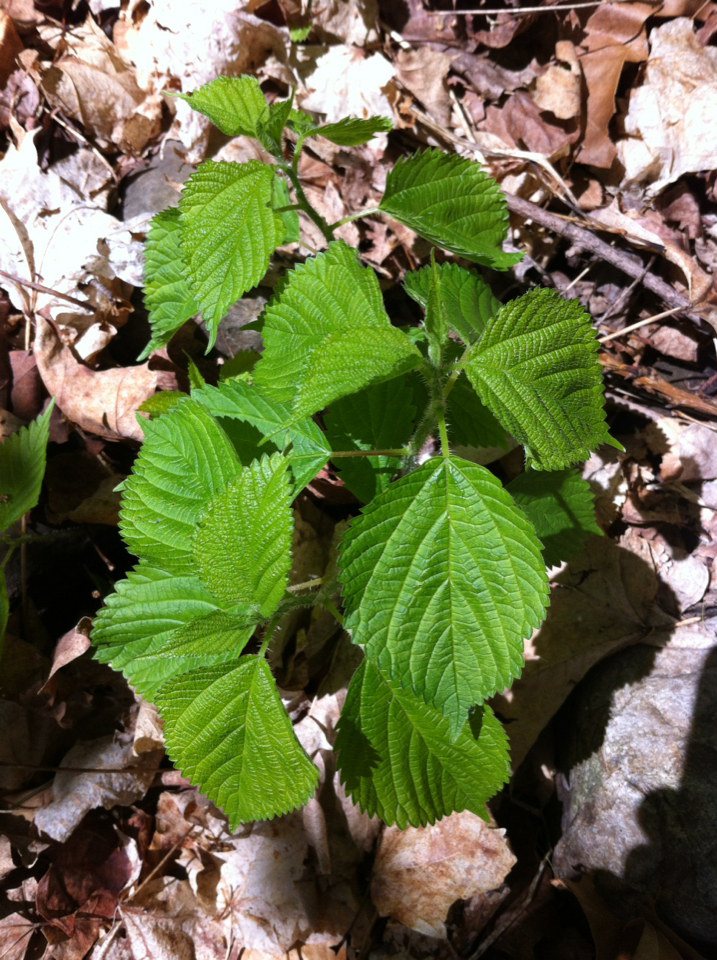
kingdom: Plantae
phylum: Tracheophyta
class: Magnoliopsida
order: Rosales
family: Urticaceae
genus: Laportea
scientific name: Laportea canadensis
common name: Canada nettle
